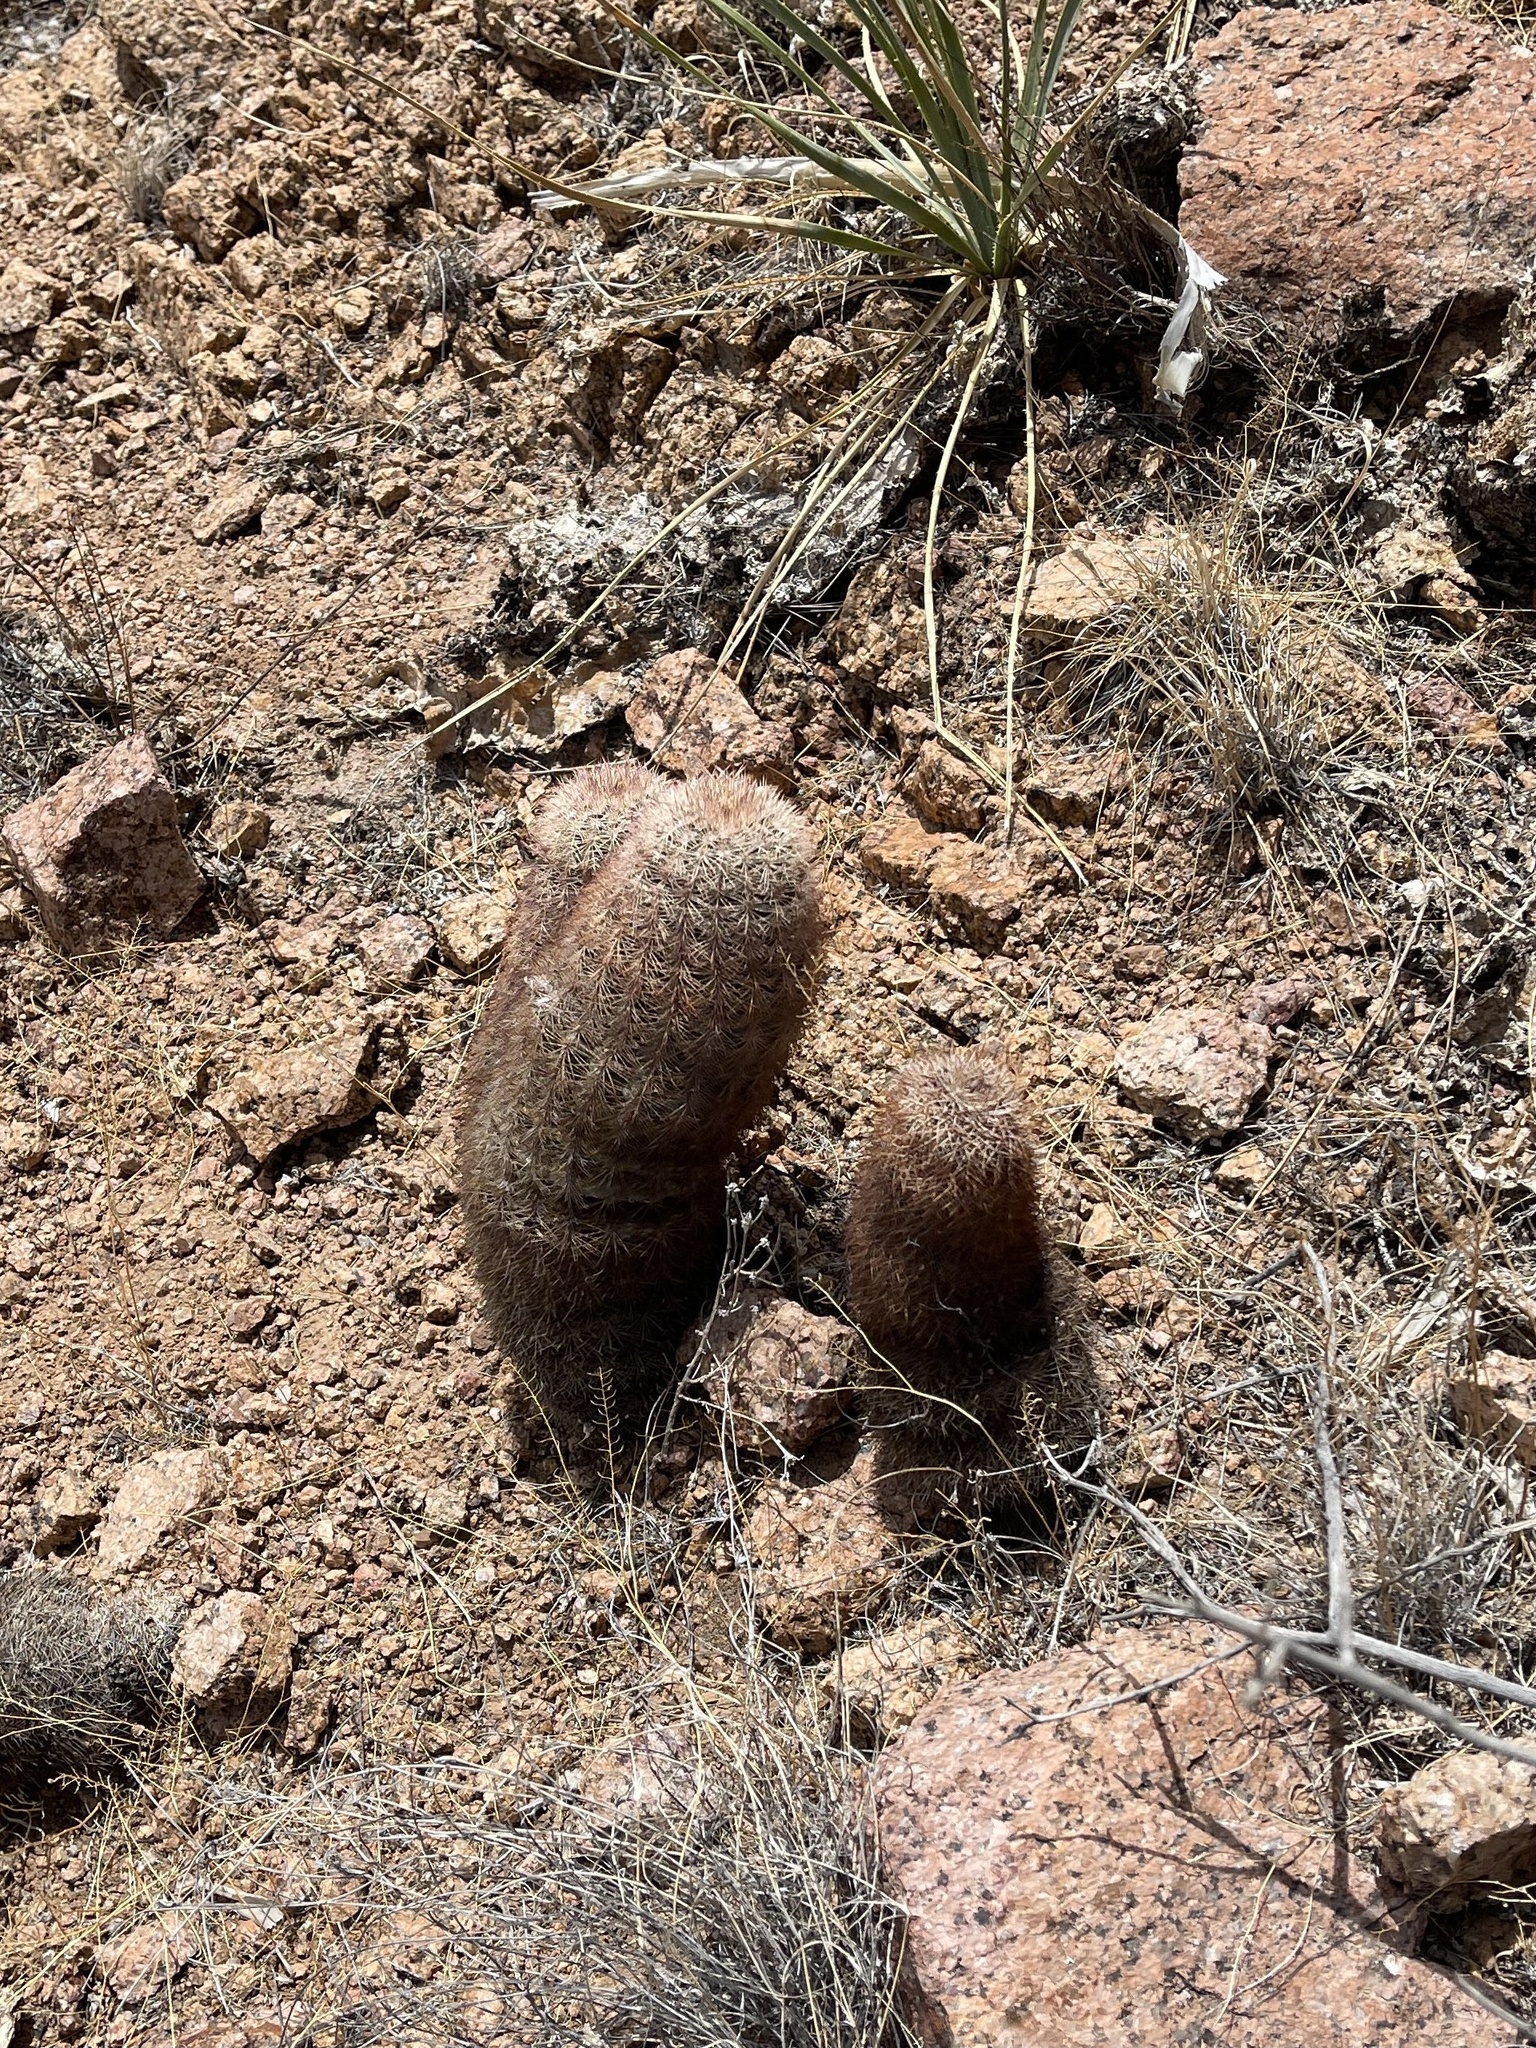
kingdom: Plantae
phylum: Tracheophyta
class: Magnoliopsida
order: Caryophyllales
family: Cactaceae
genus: Echinocereus
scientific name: Echinocereus dasyacanthus
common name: Spiny hedgehog cactus
